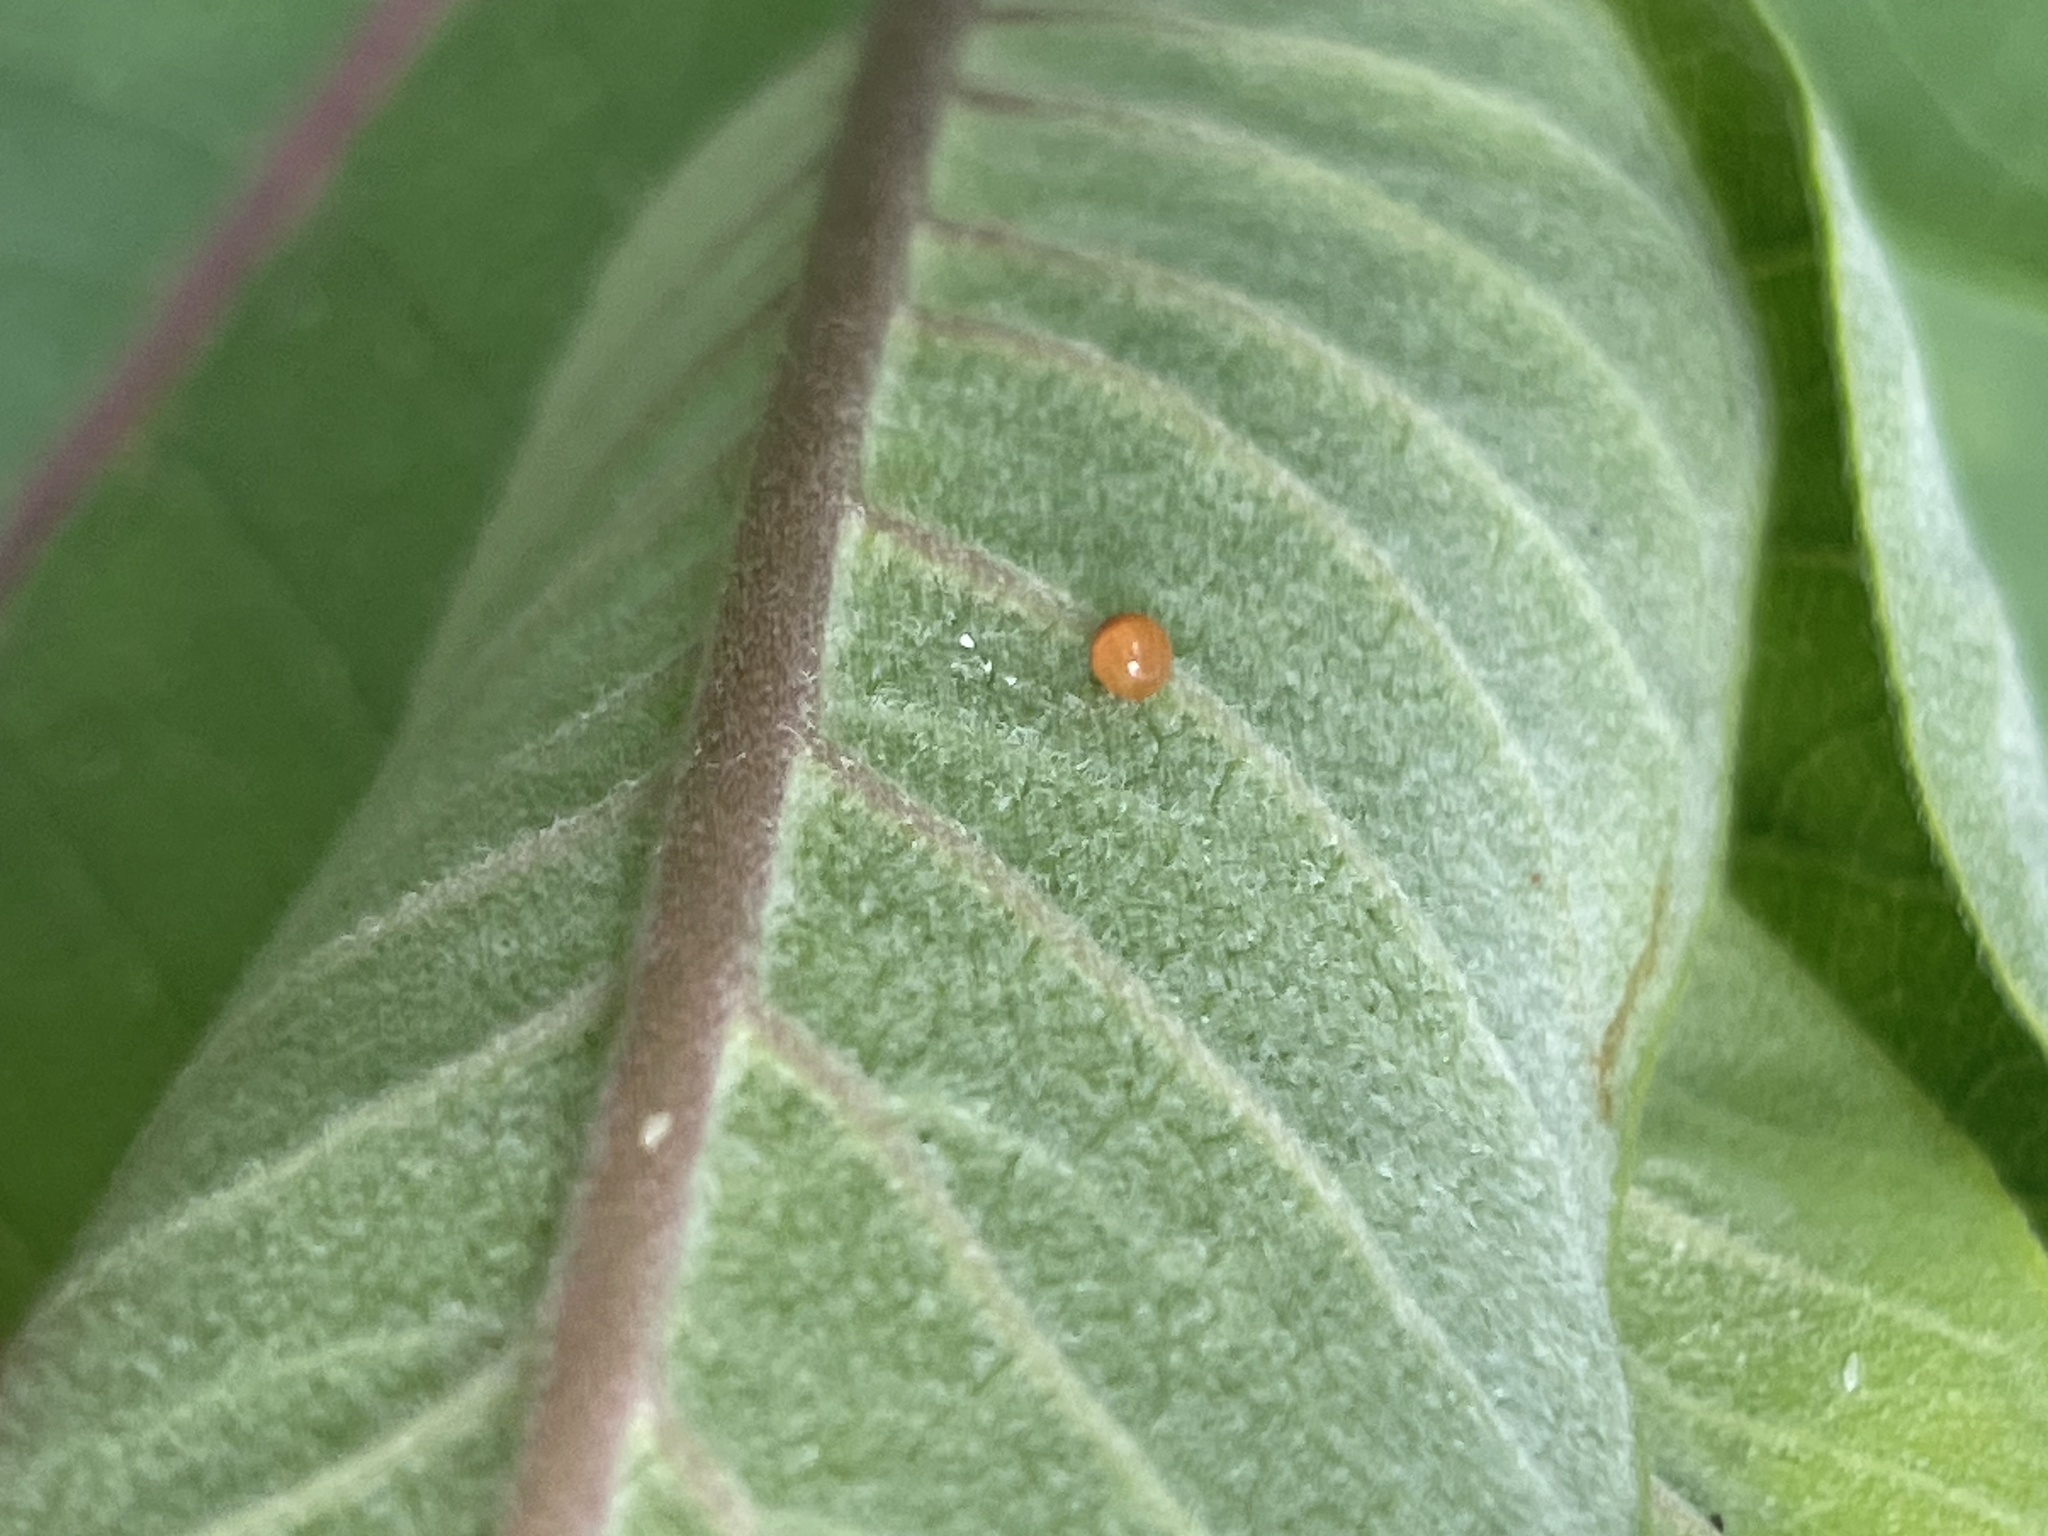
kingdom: Animalia
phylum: Arthropoda
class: Insecta
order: Lepidoptera
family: Nymphalidae
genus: Danaus
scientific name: Danaus plexippus
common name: Monarch
